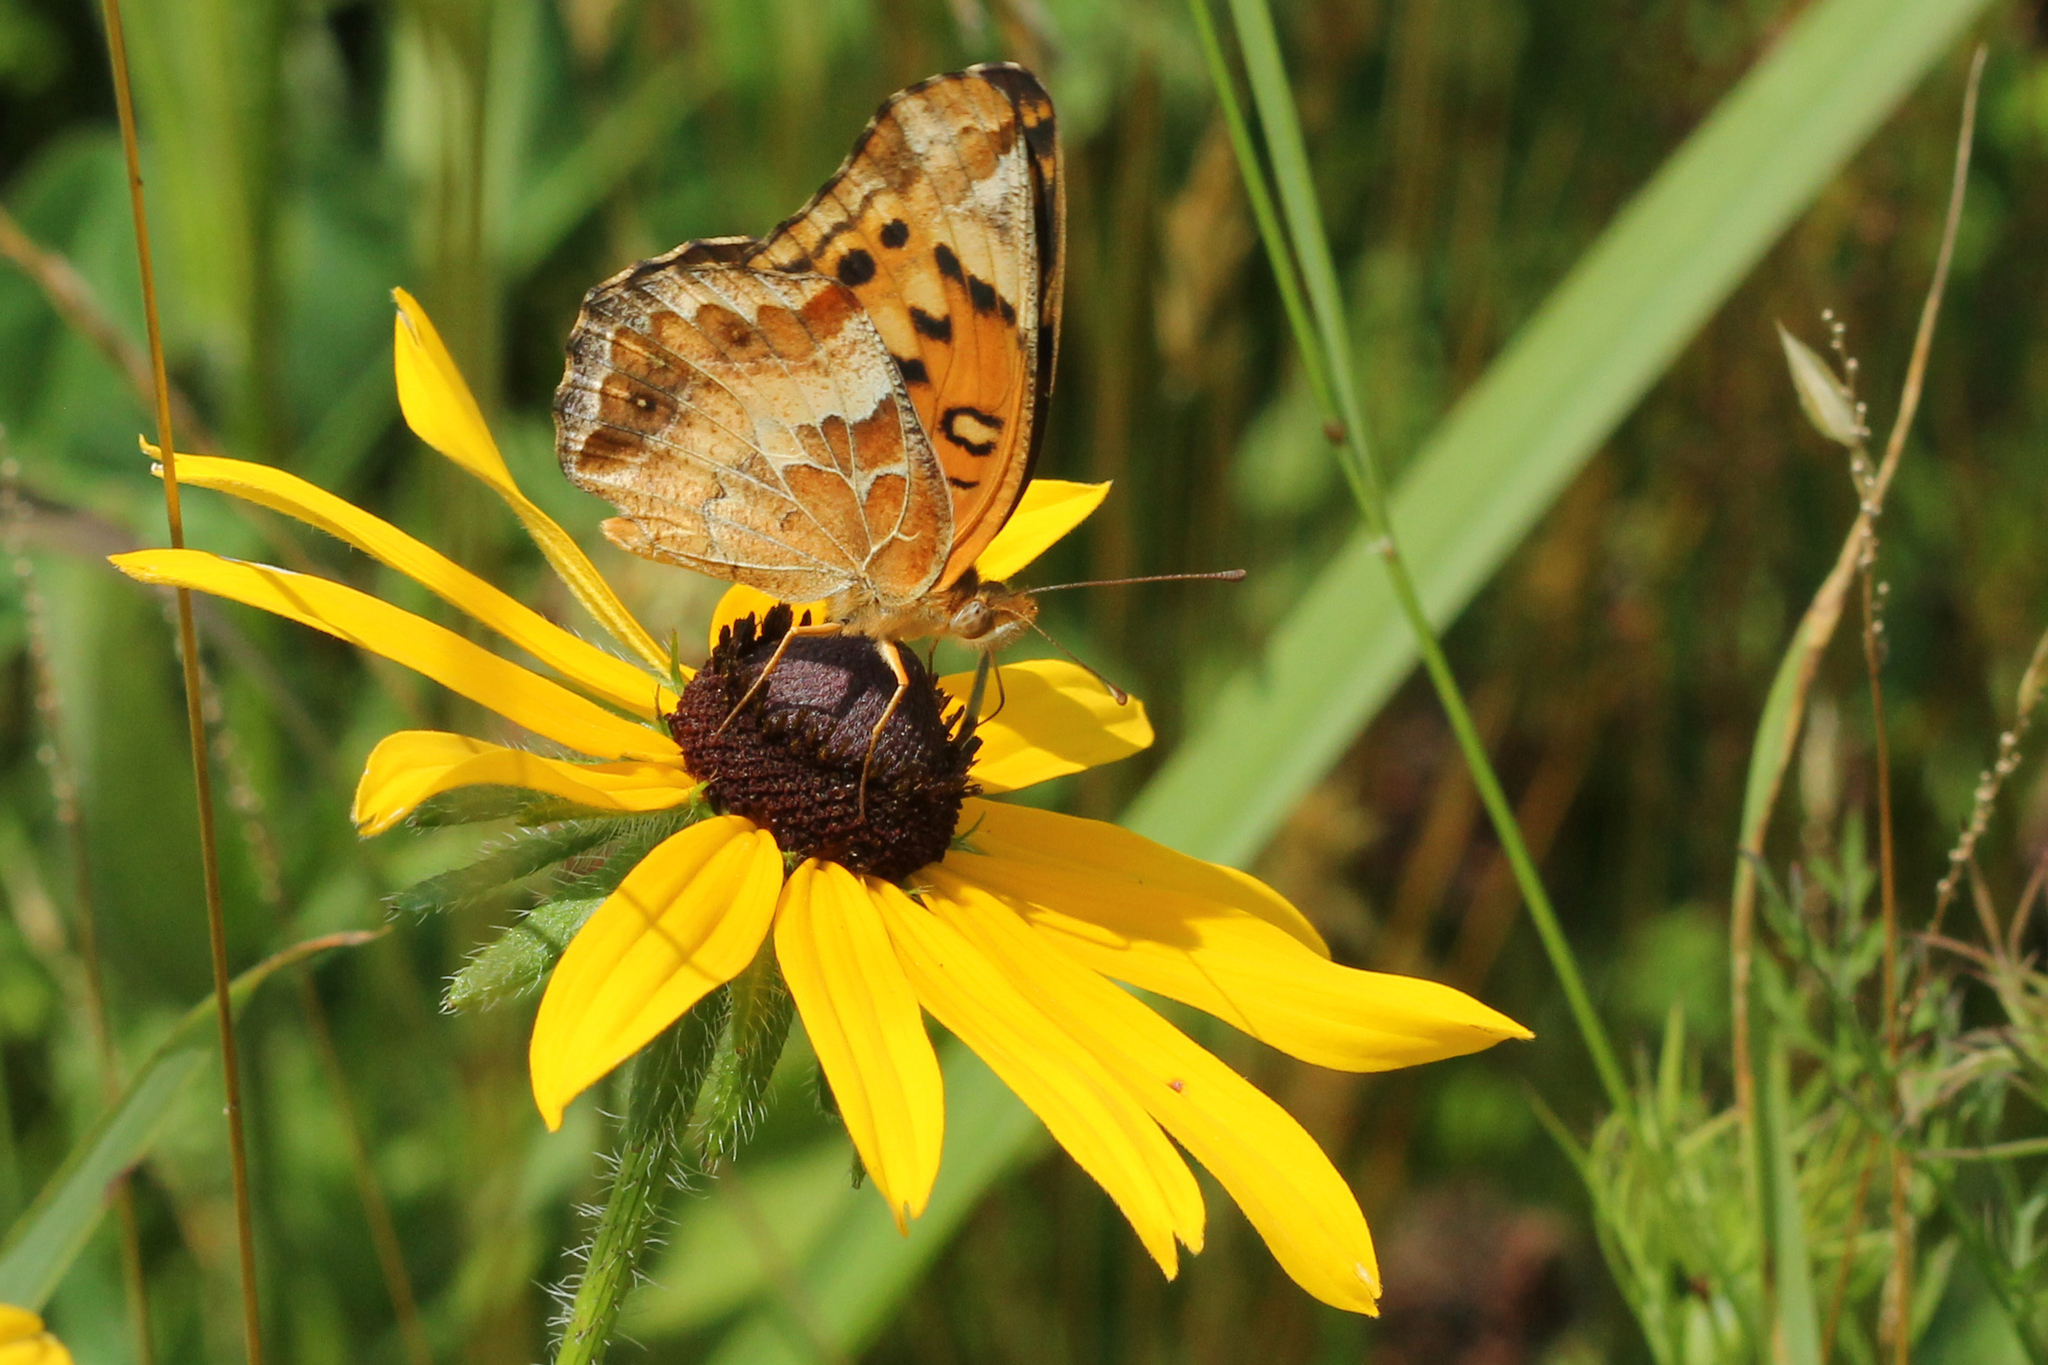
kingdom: Animalia
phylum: Arthropoda
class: Insecta
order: Lepidoptera
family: Nymphalidae
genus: Euptoieta
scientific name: Euptoieta claudia
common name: Variegated fritillary
